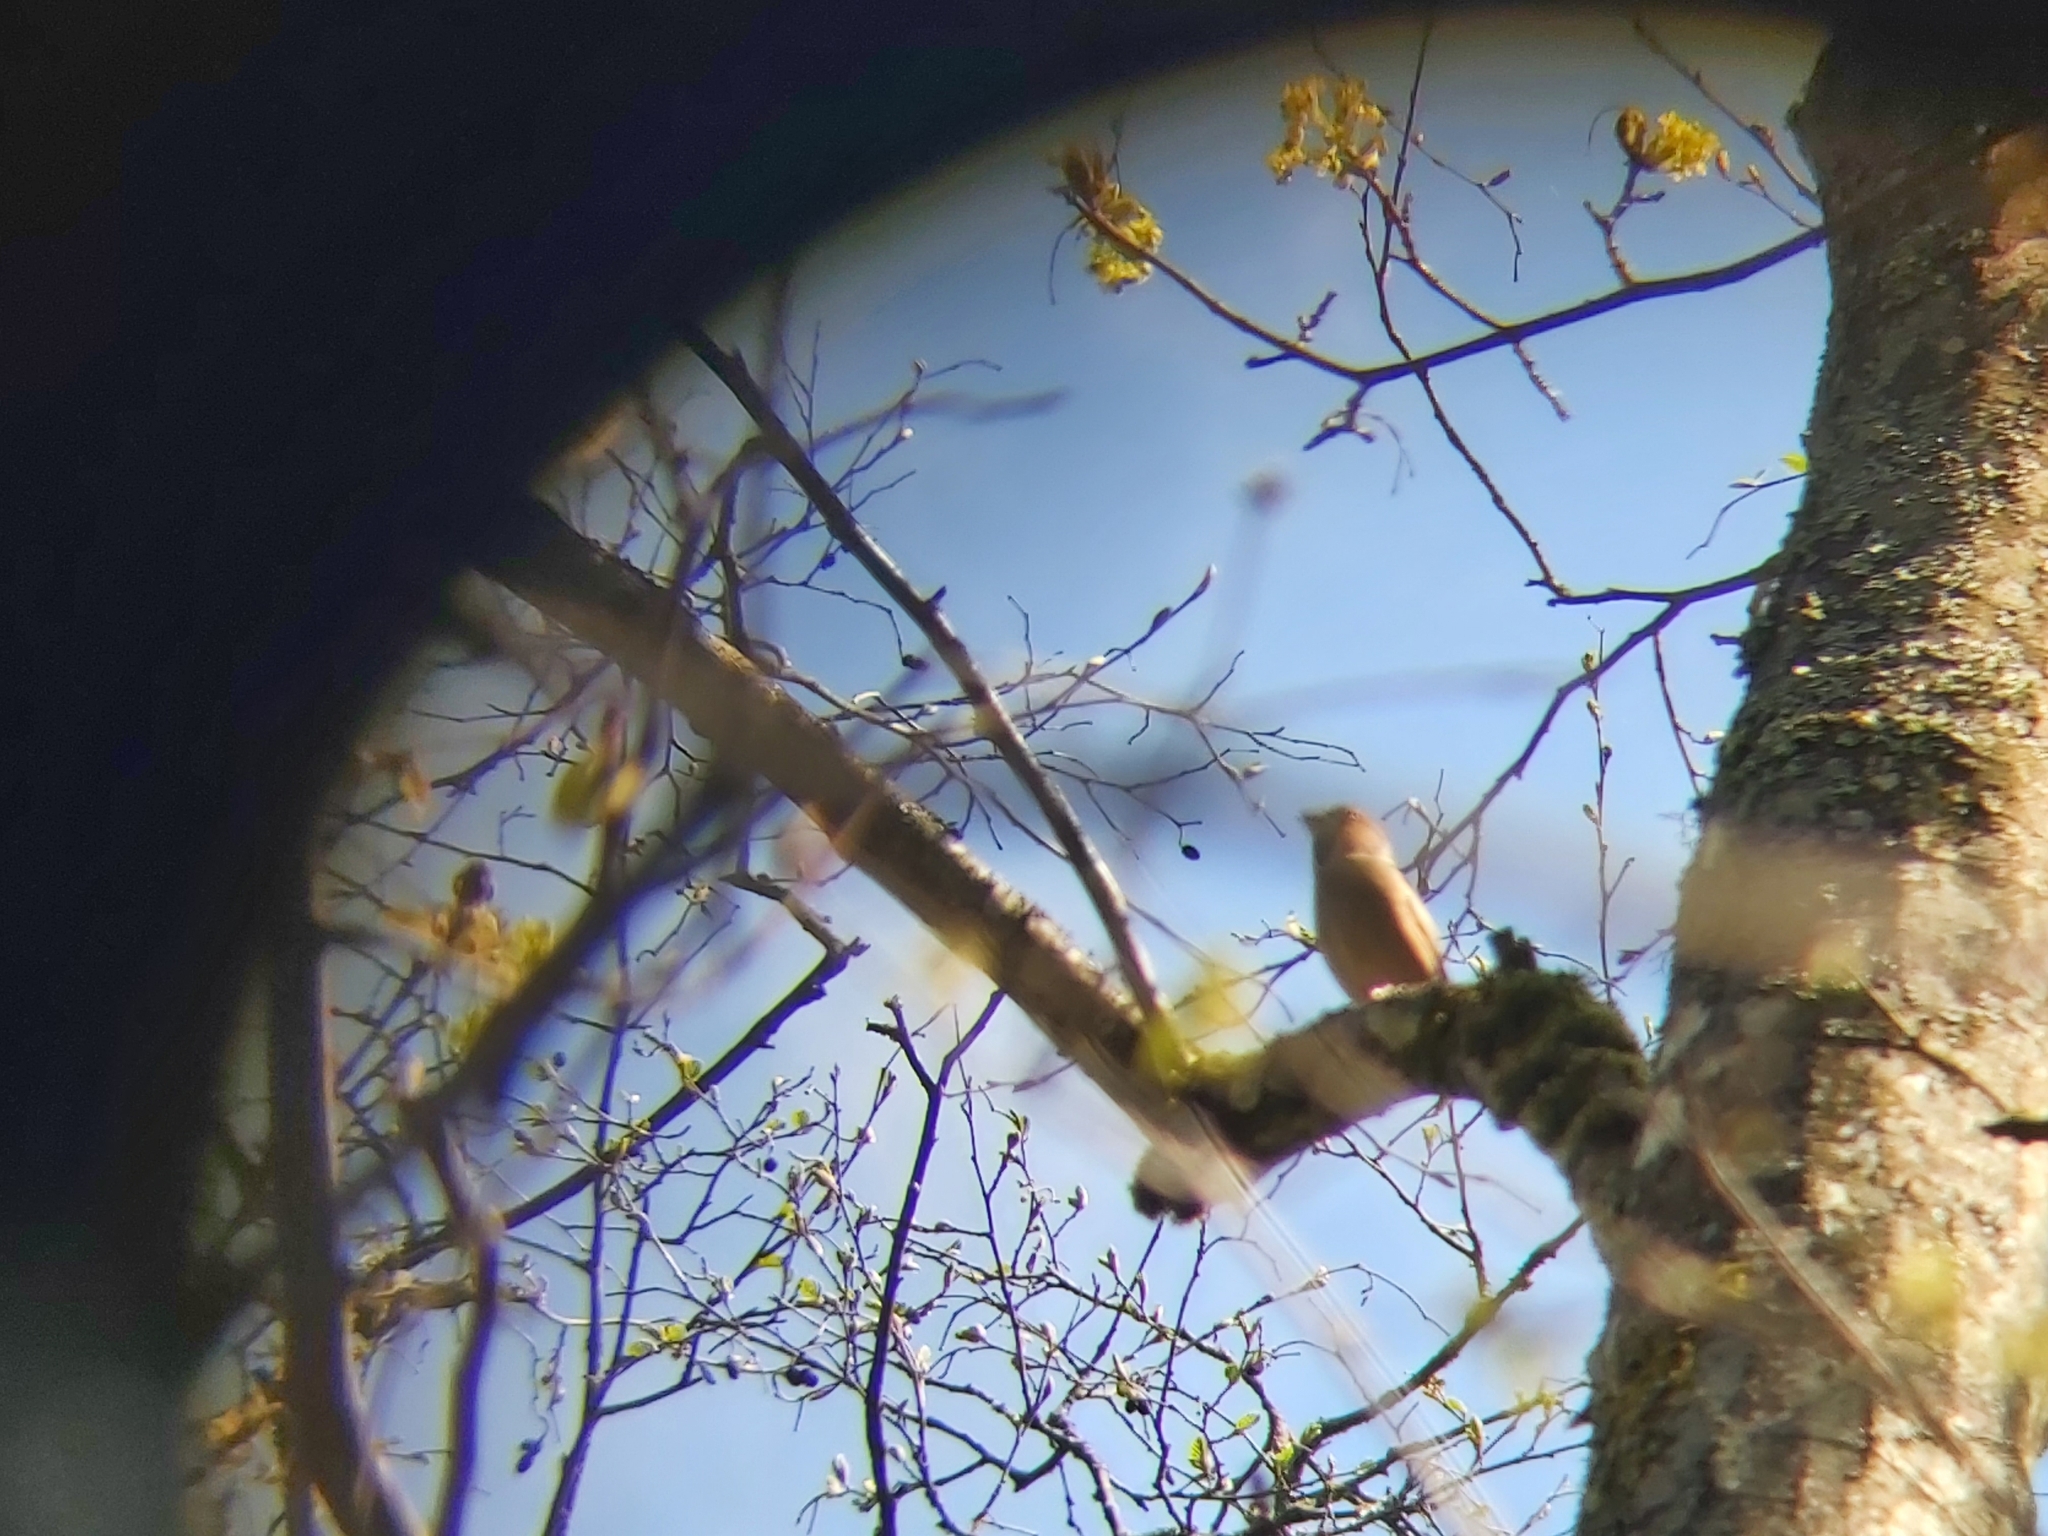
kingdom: Animalia
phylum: Chordata
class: Aves
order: Passeriformes
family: Fringillidae
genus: Coccothraustes
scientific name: Coccothraustes coccothraustes
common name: Hawfinch
